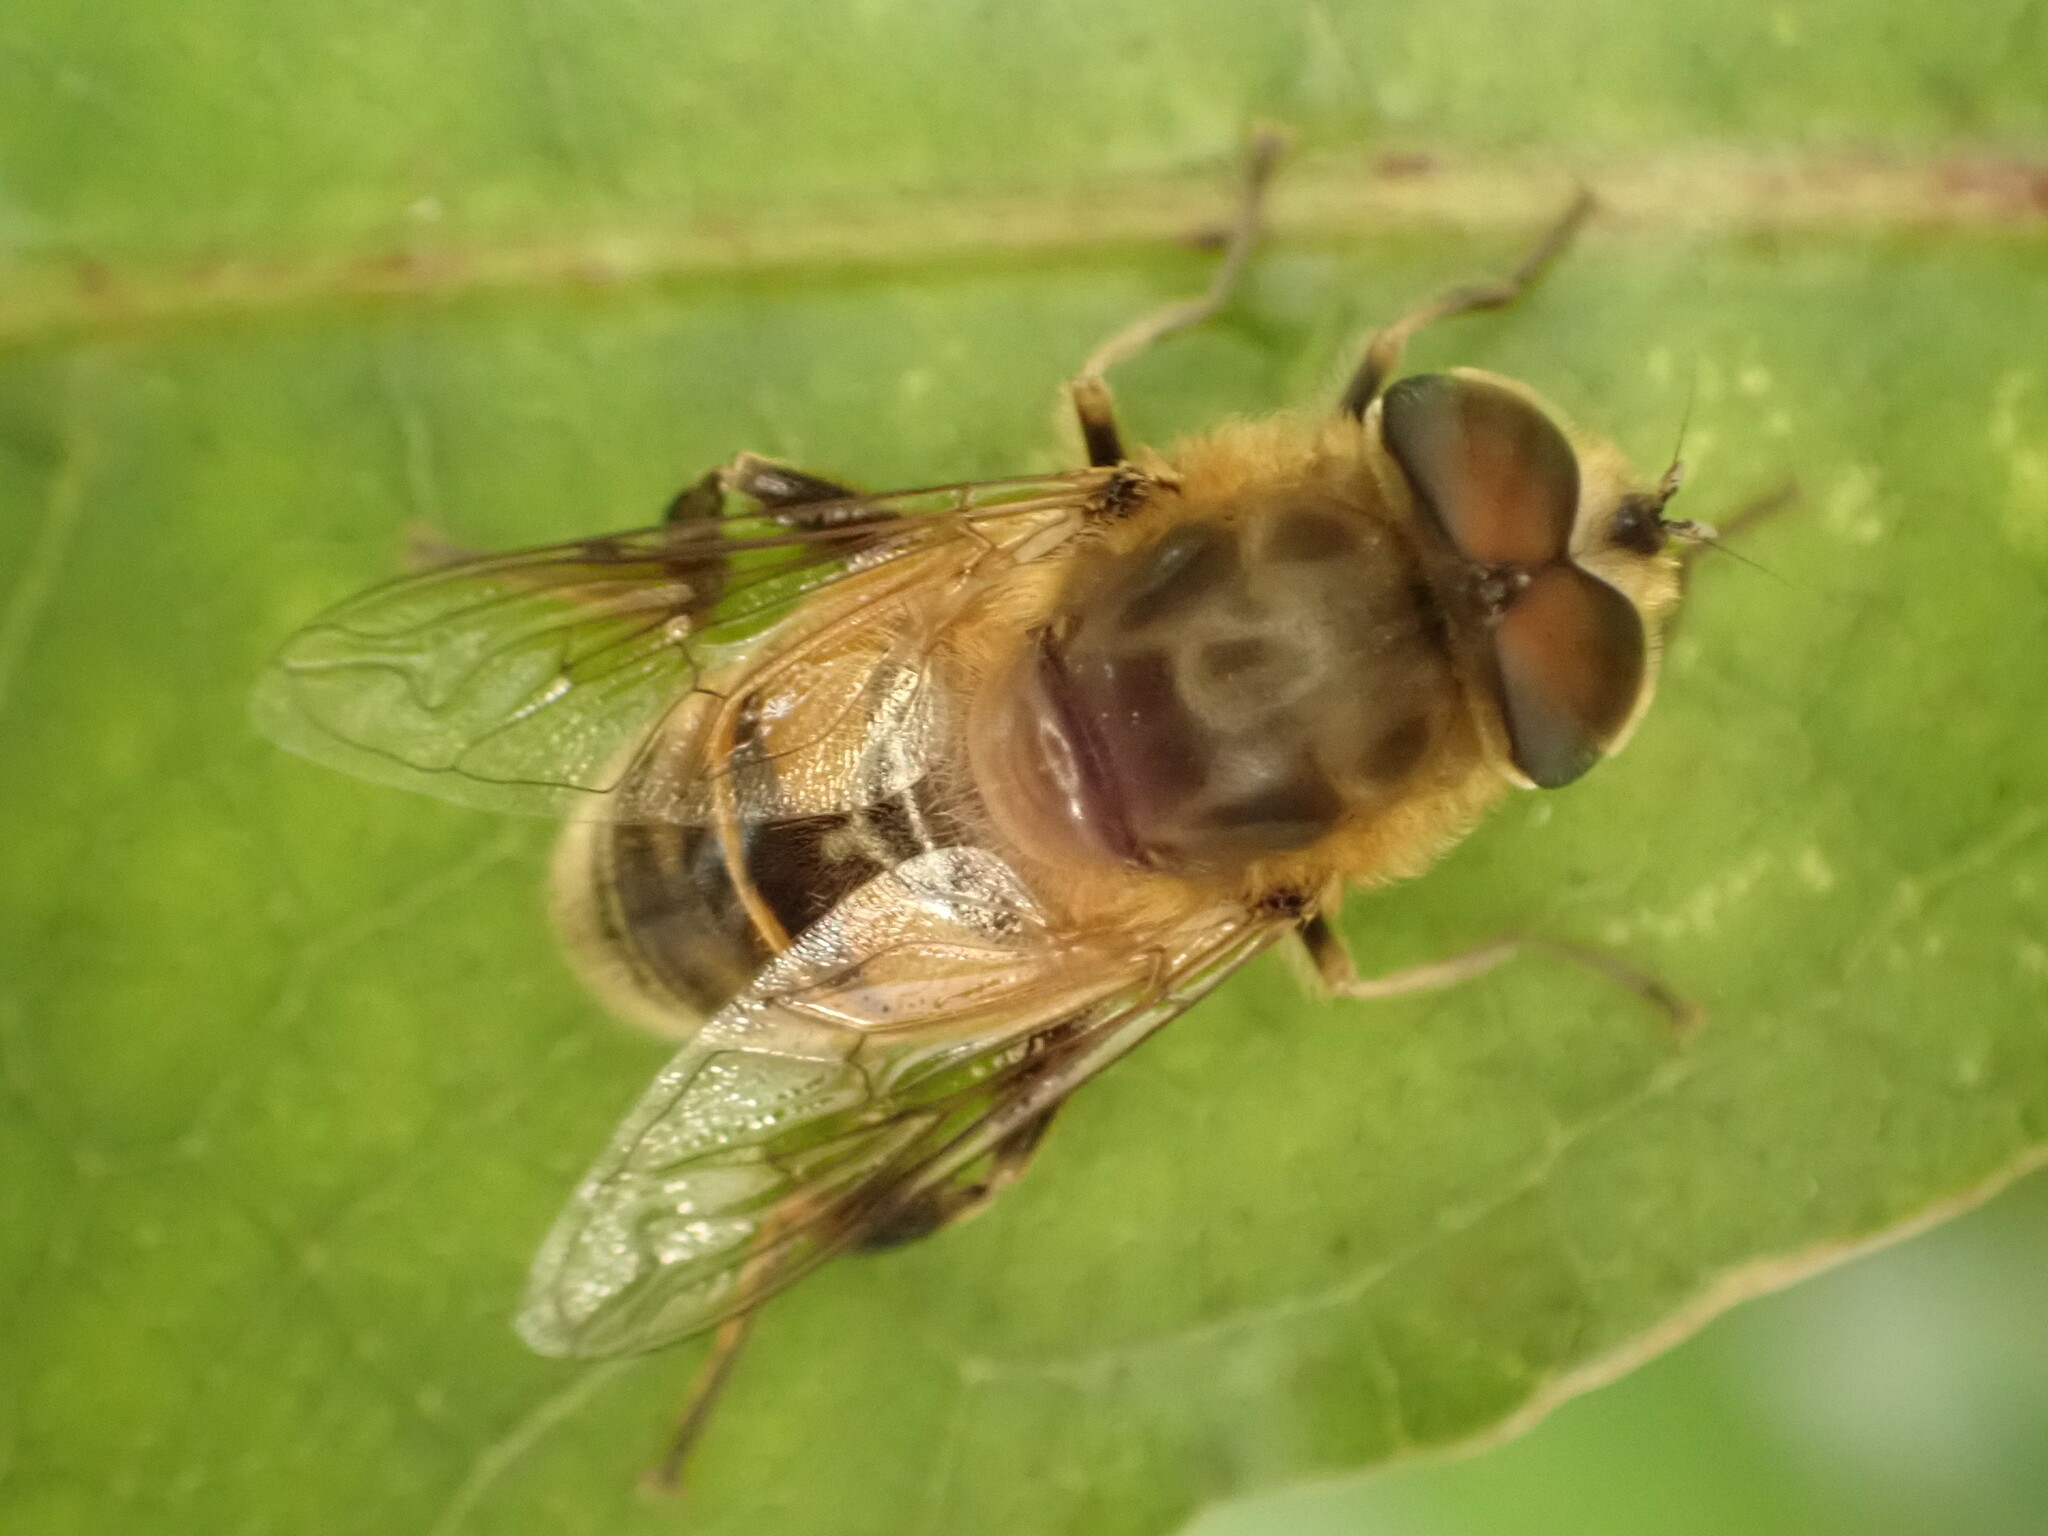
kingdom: Animalia
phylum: Arthropoda
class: Insecta
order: Diptera
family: Syrphidae
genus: Eristalis
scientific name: Eristalis tenax
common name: Drone fly
